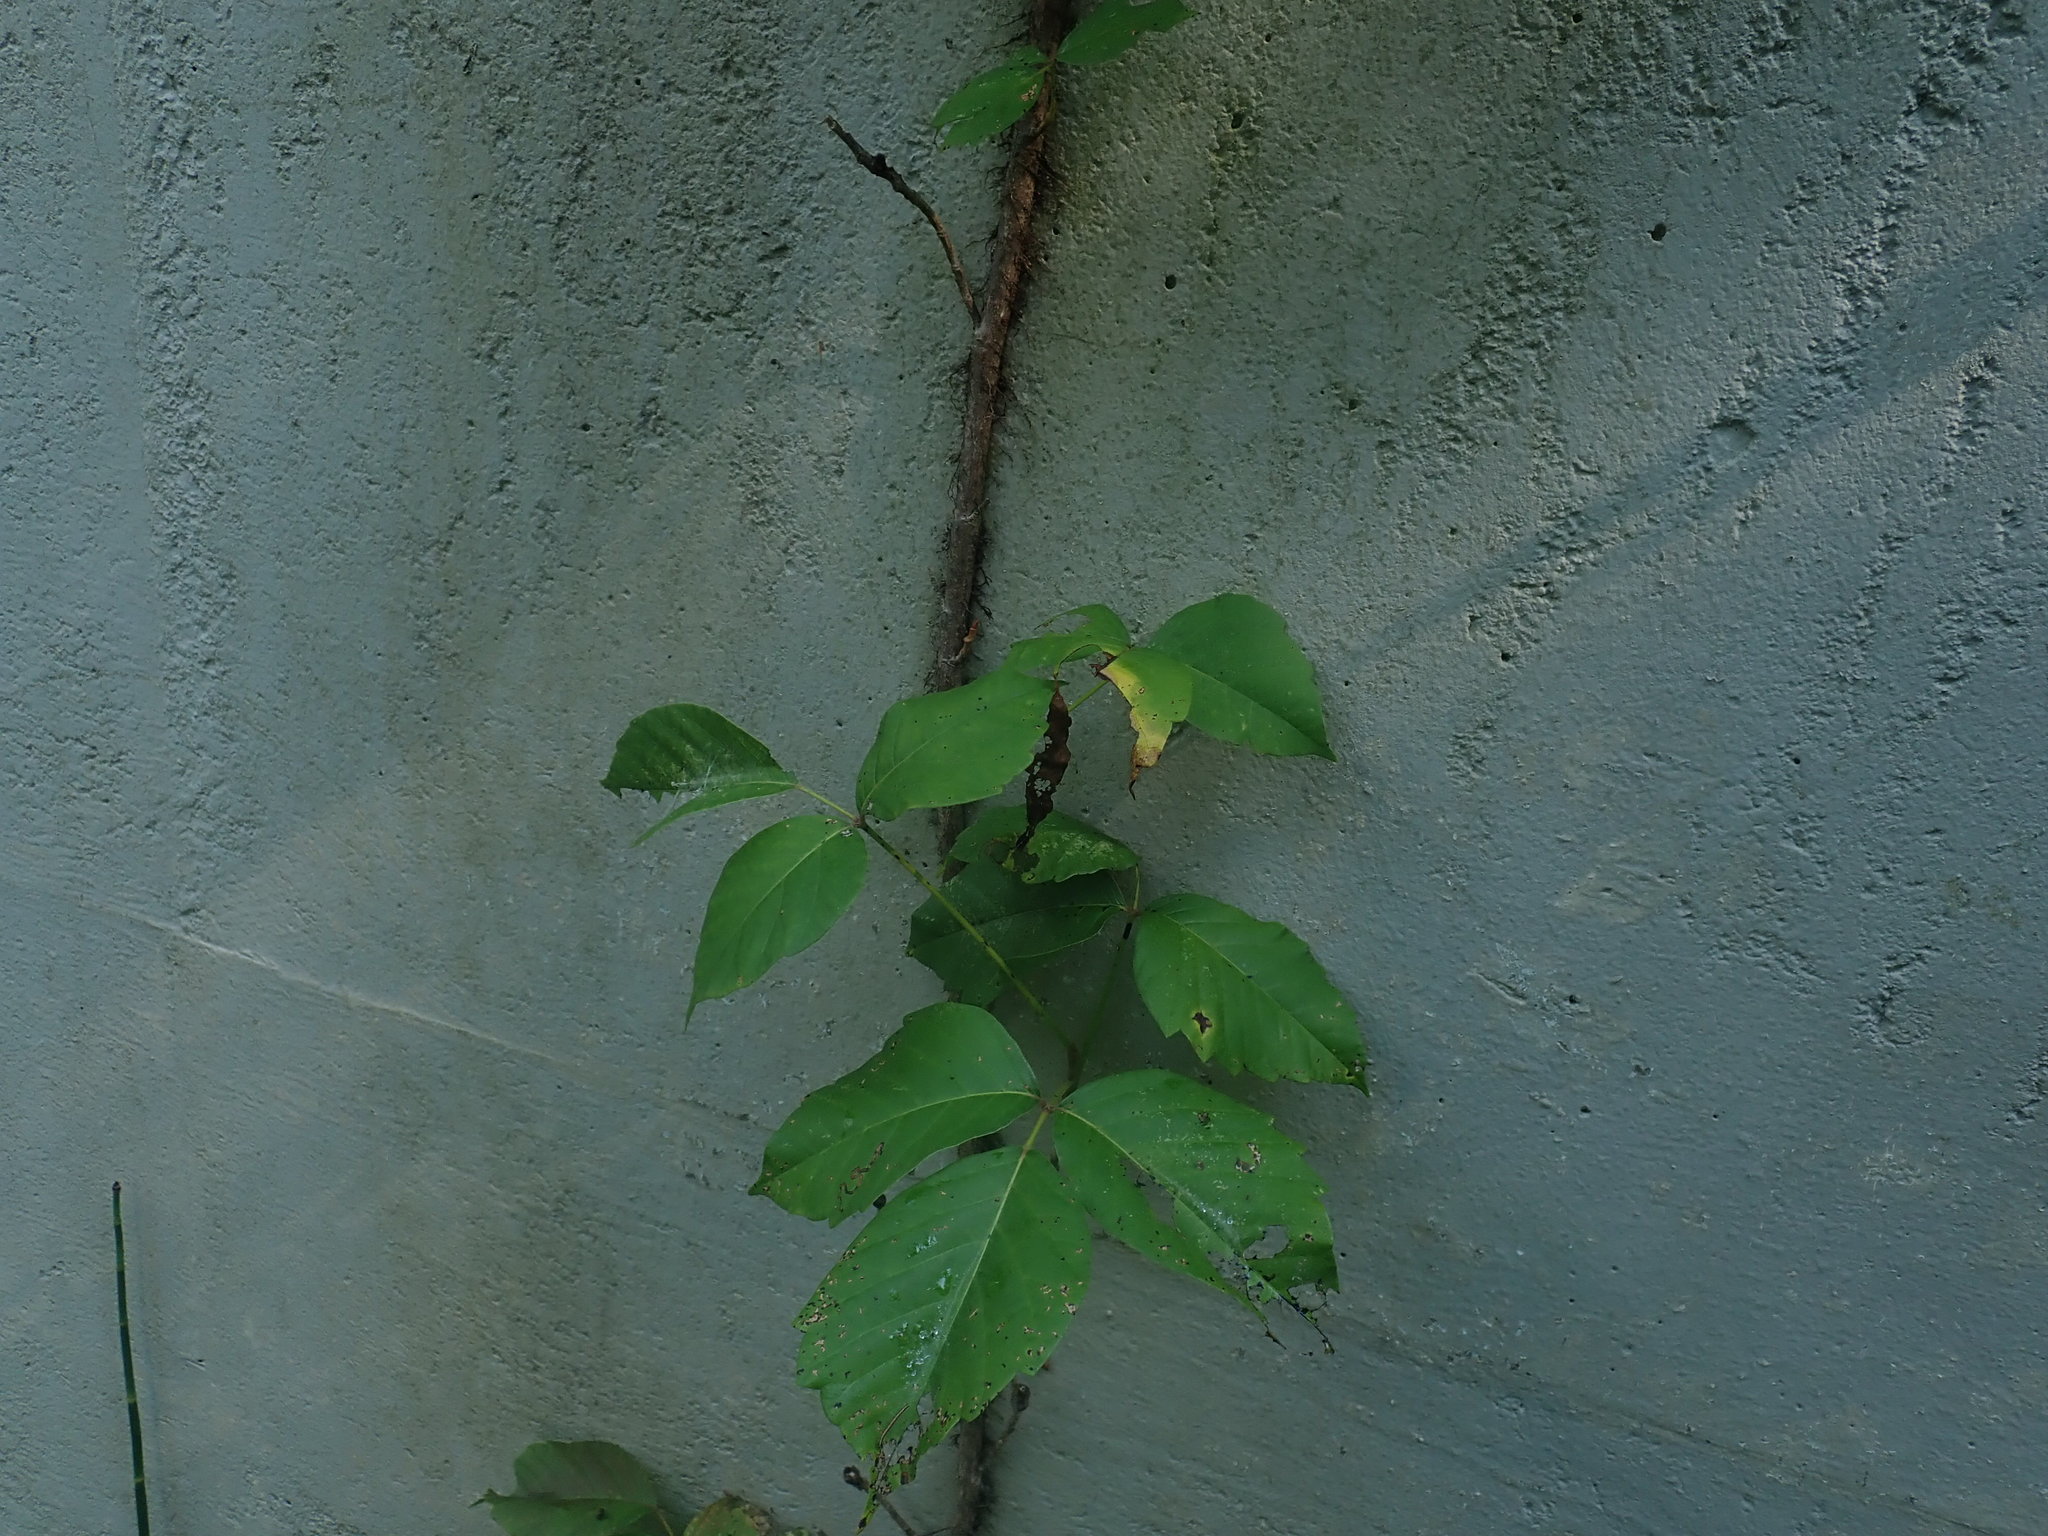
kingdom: Plantae
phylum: Tracheophyta
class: Magnoliopsida
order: Sapindales
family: Anacardiaceae
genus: Toxicodendron
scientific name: Toxicodendron radicans
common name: Poison ivy
